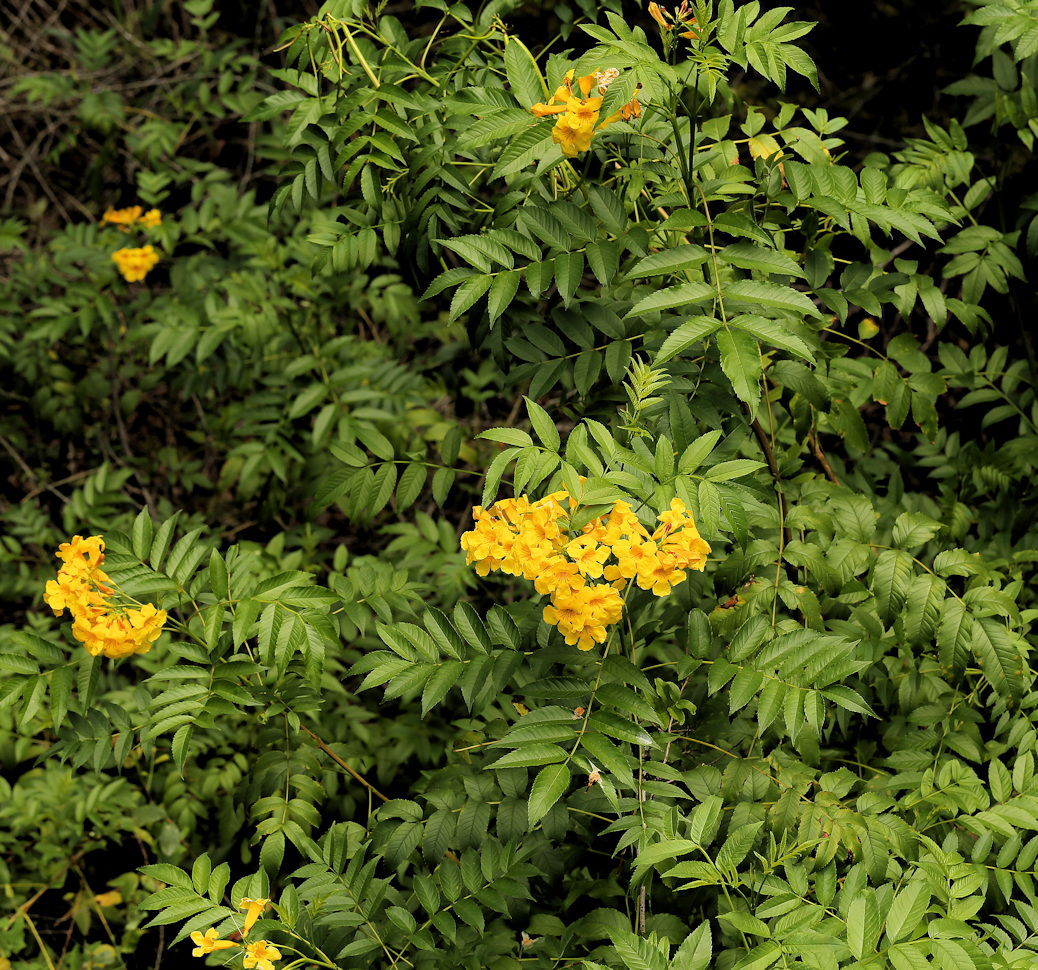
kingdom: Plantae
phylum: Tracheophyta
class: Magnoliopsida
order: Lamiales
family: Bignoniaceae
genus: Tecoma
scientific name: Tecoma stans
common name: Yellow trumpetbush
